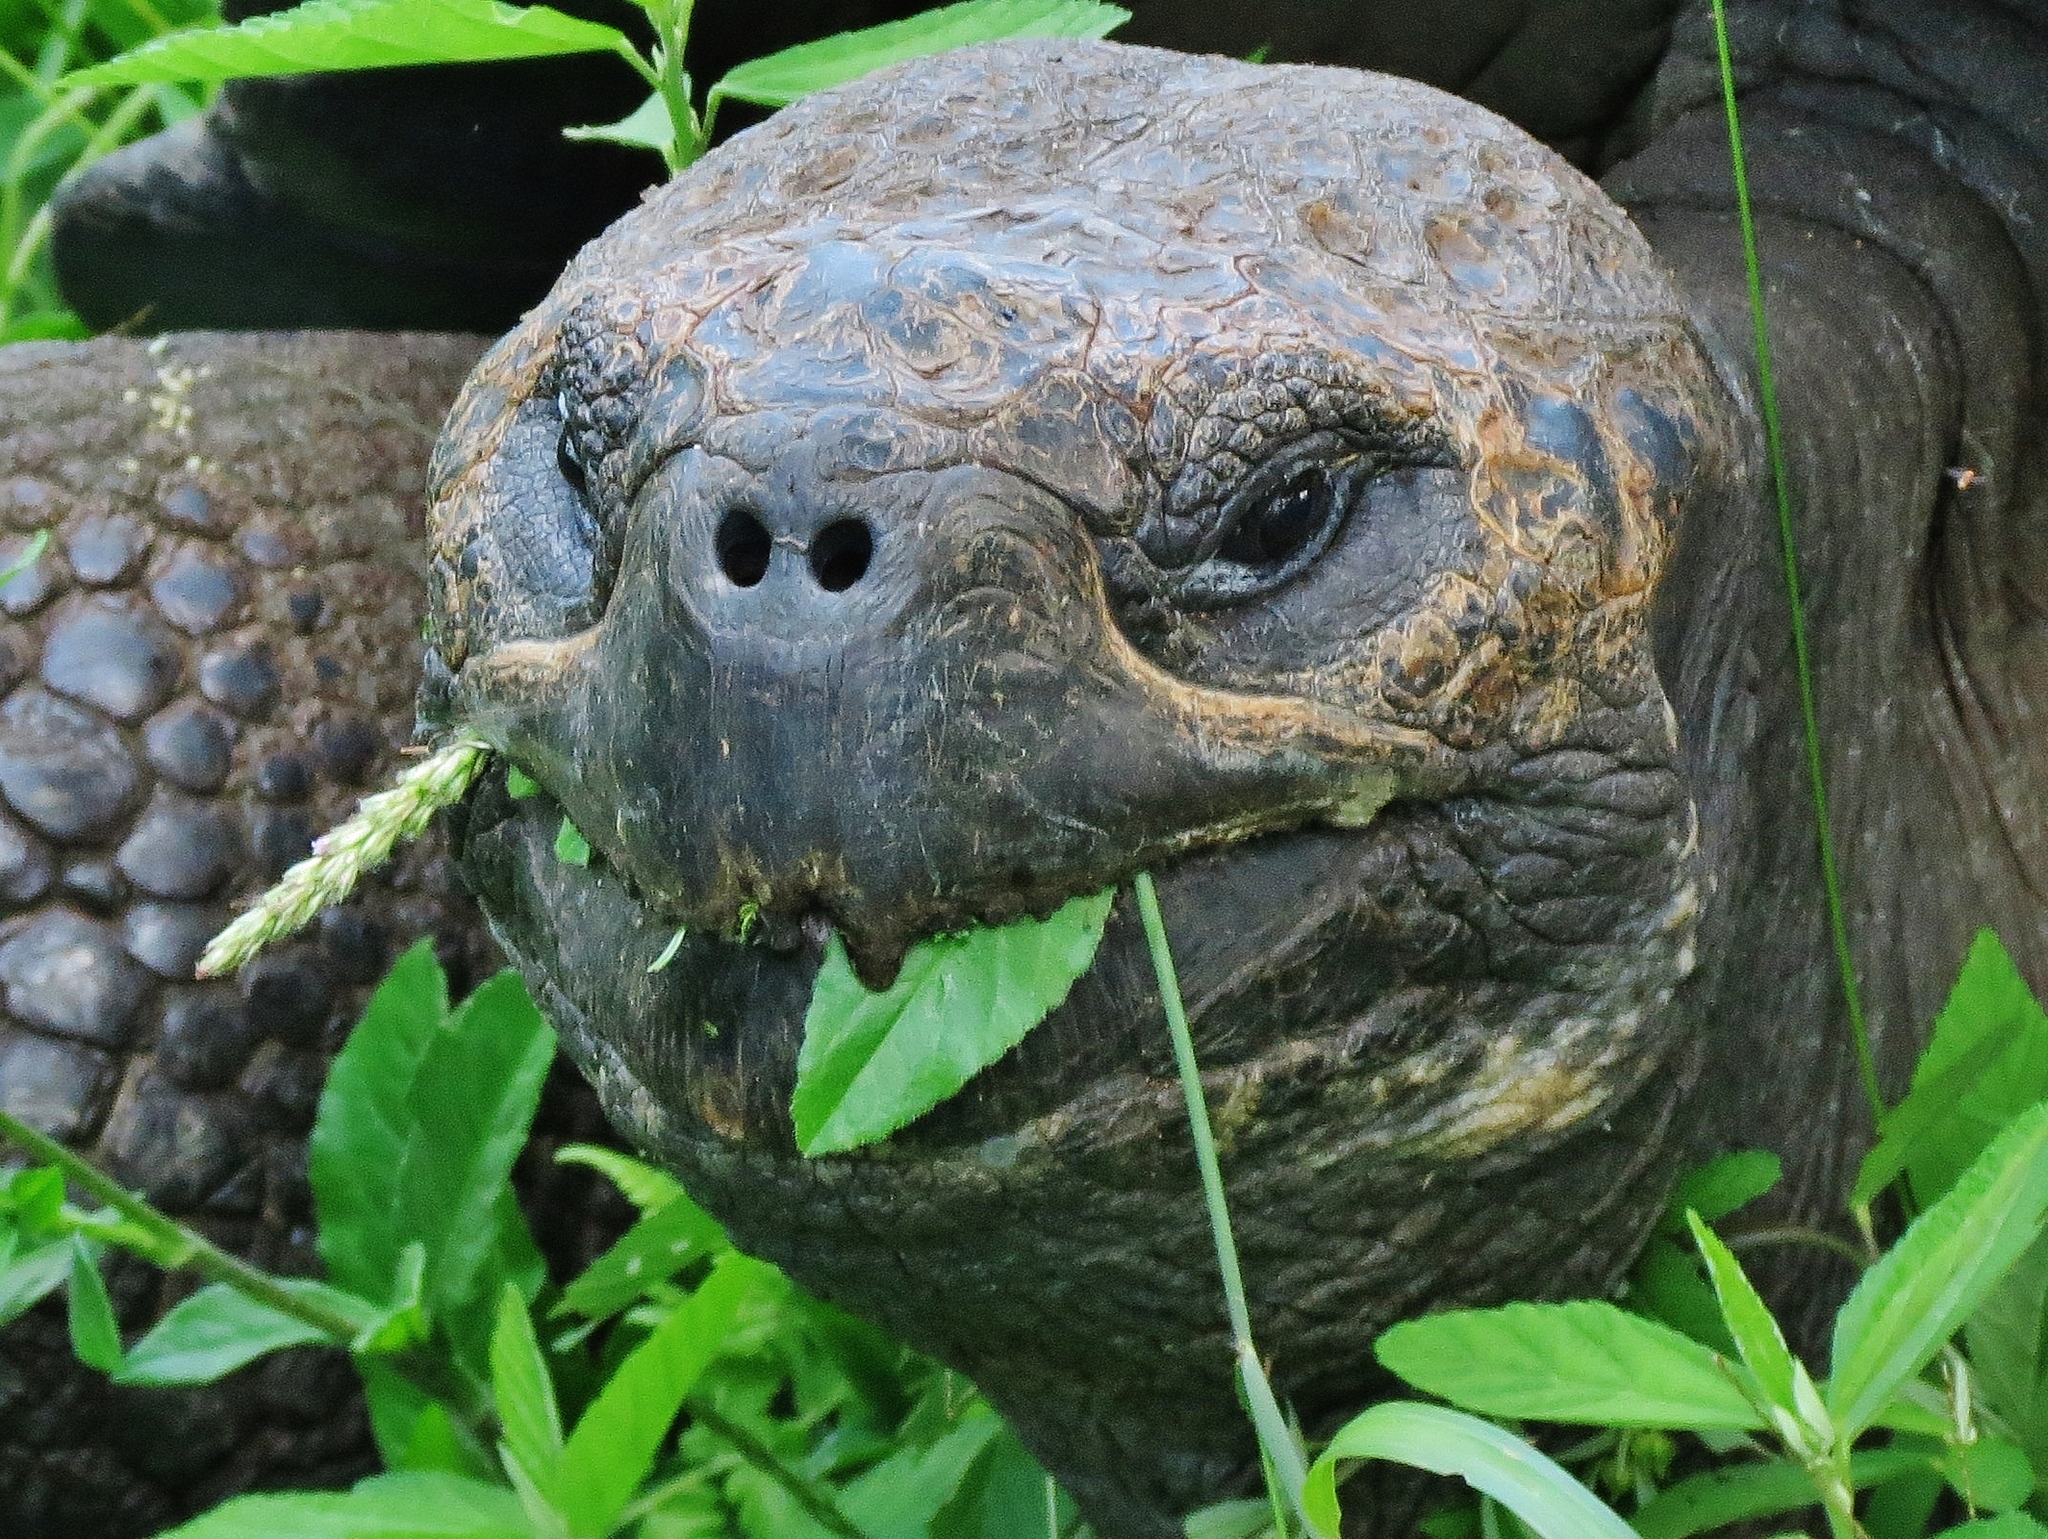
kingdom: Animalia
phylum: Chordata
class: Testudines
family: Testudinidae
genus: Chelonoidis
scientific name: Chelonoidis porteri
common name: Indefatigable island giant tortoise
